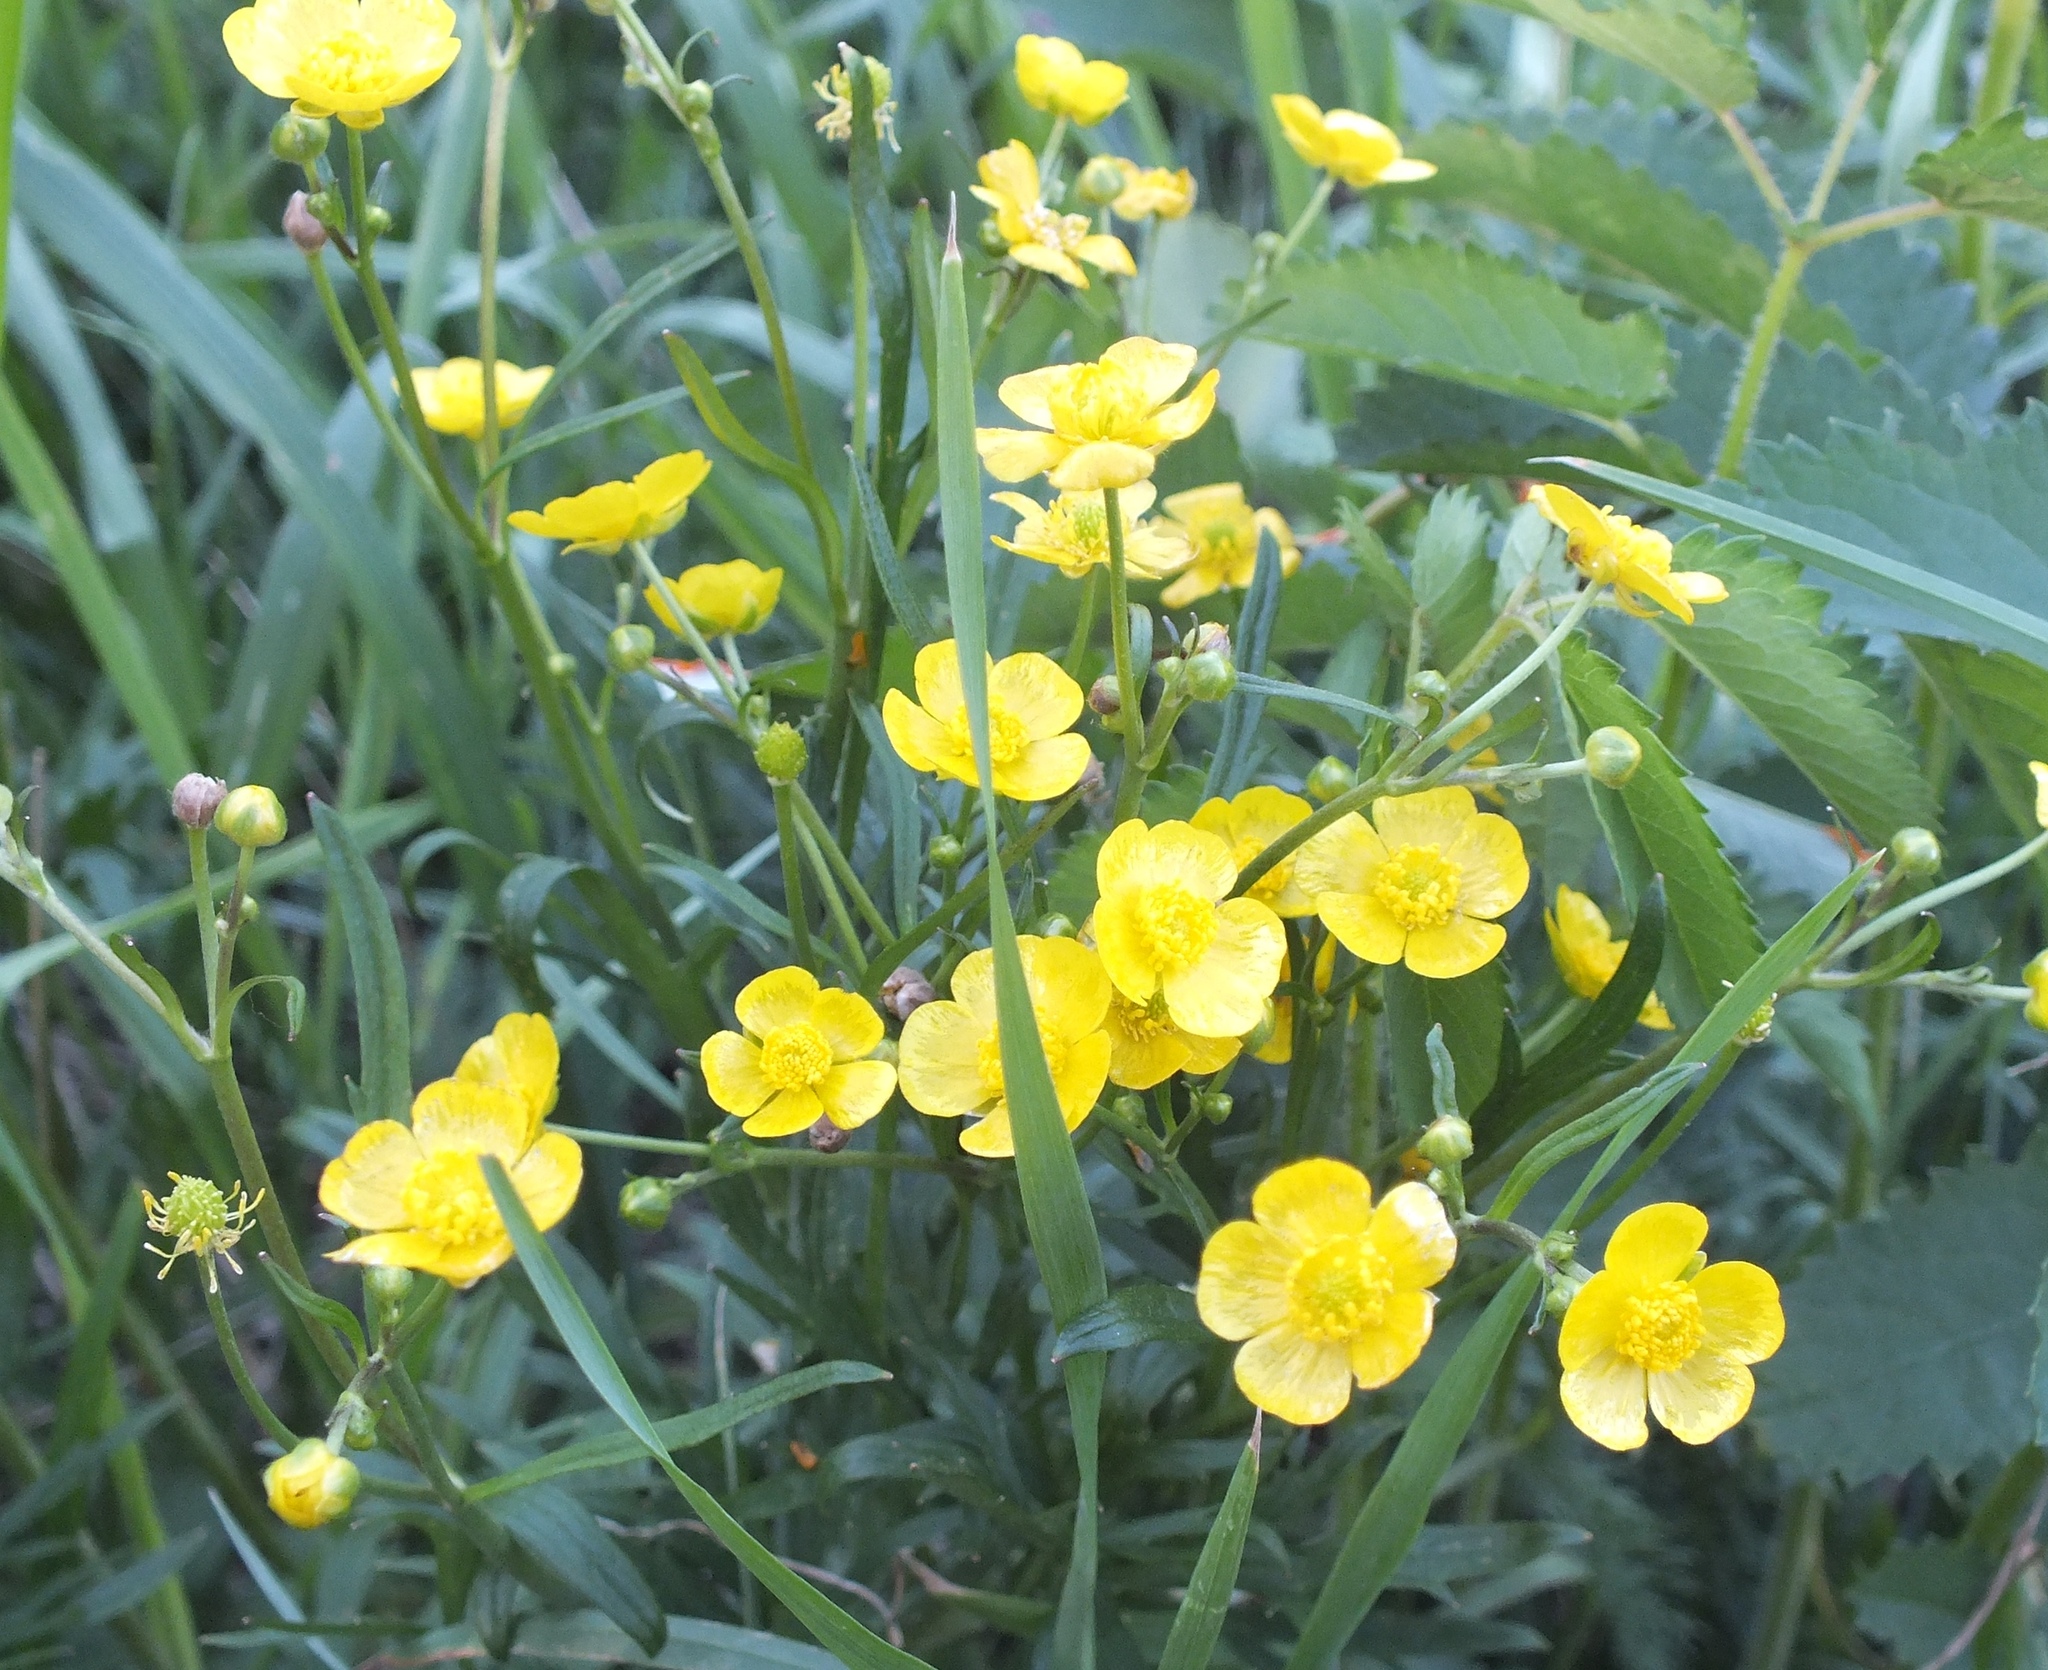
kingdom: Plantae
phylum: Tracheophyta
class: Magnoliopsida
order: Ranunculales
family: Ranunculaceae
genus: Ranunculus
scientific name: Ranunculus acris
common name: Meadow buttercup
